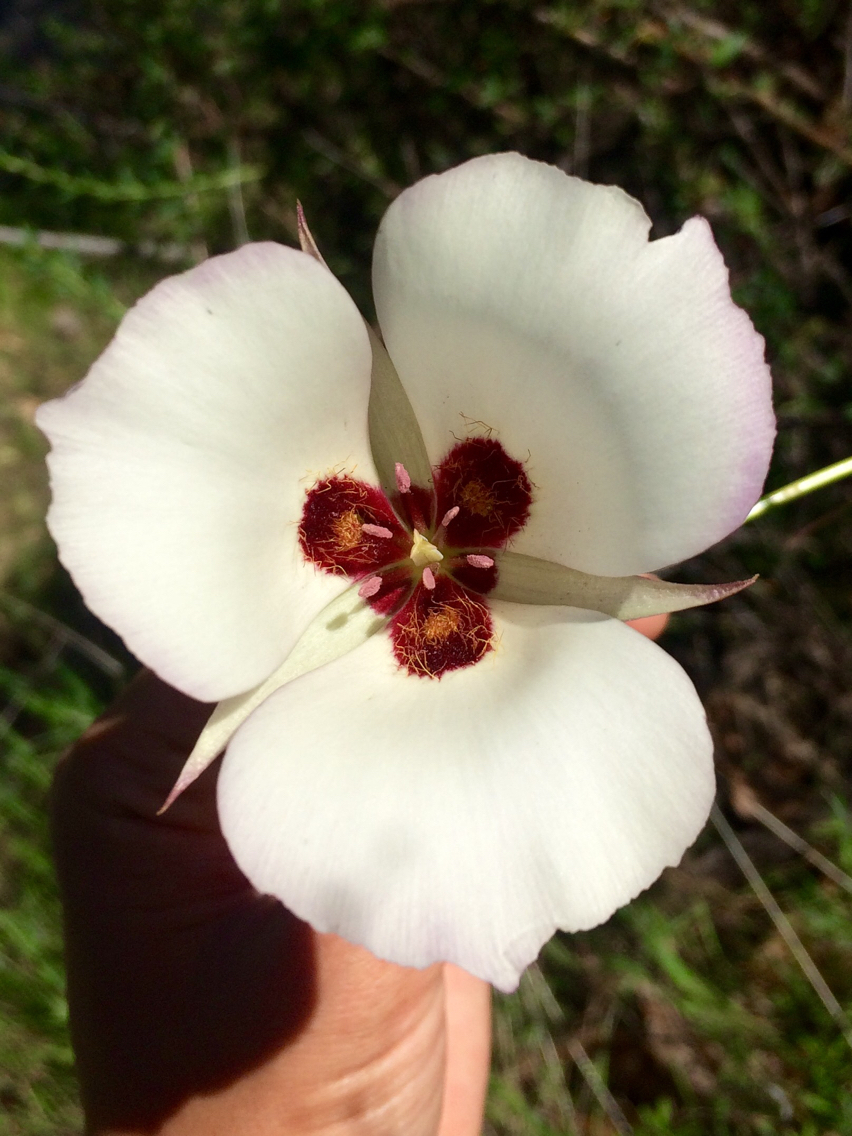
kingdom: Plantae
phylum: Tracheophyta
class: Liliopsida
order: Liliales
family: Liliaceae
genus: Calochortus
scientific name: Calochortus catalinae
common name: Catalina mariposa-lily
